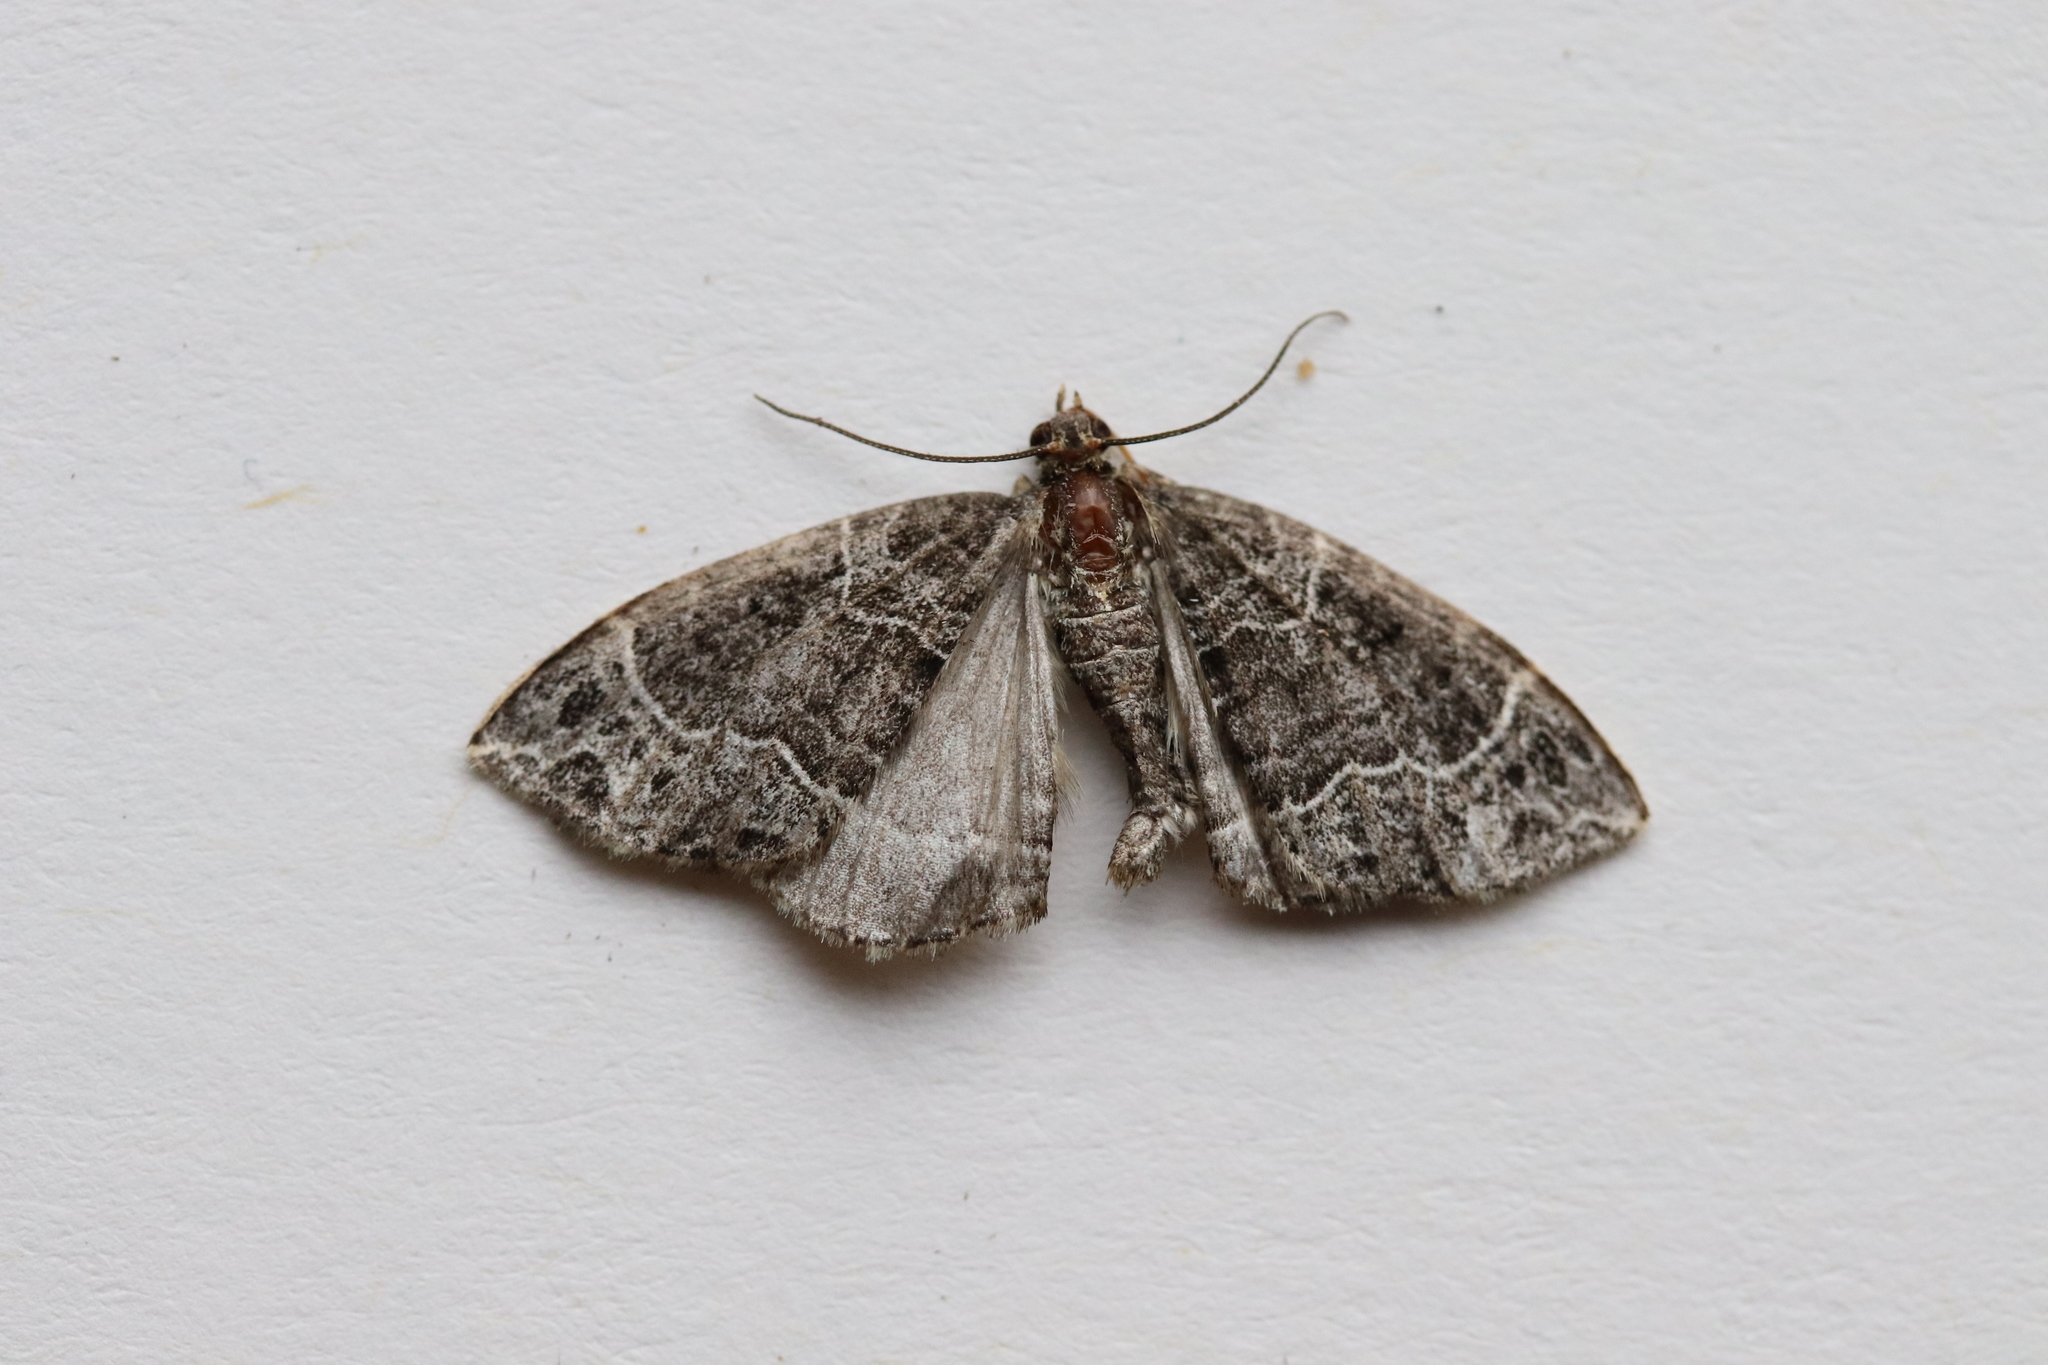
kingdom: Animalia
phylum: Arthropoda
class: Insecta
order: Lepidoptera
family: Geometridae
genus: Ecliptopera
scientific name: Ecliptopera silaceata
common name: Small phoenix
